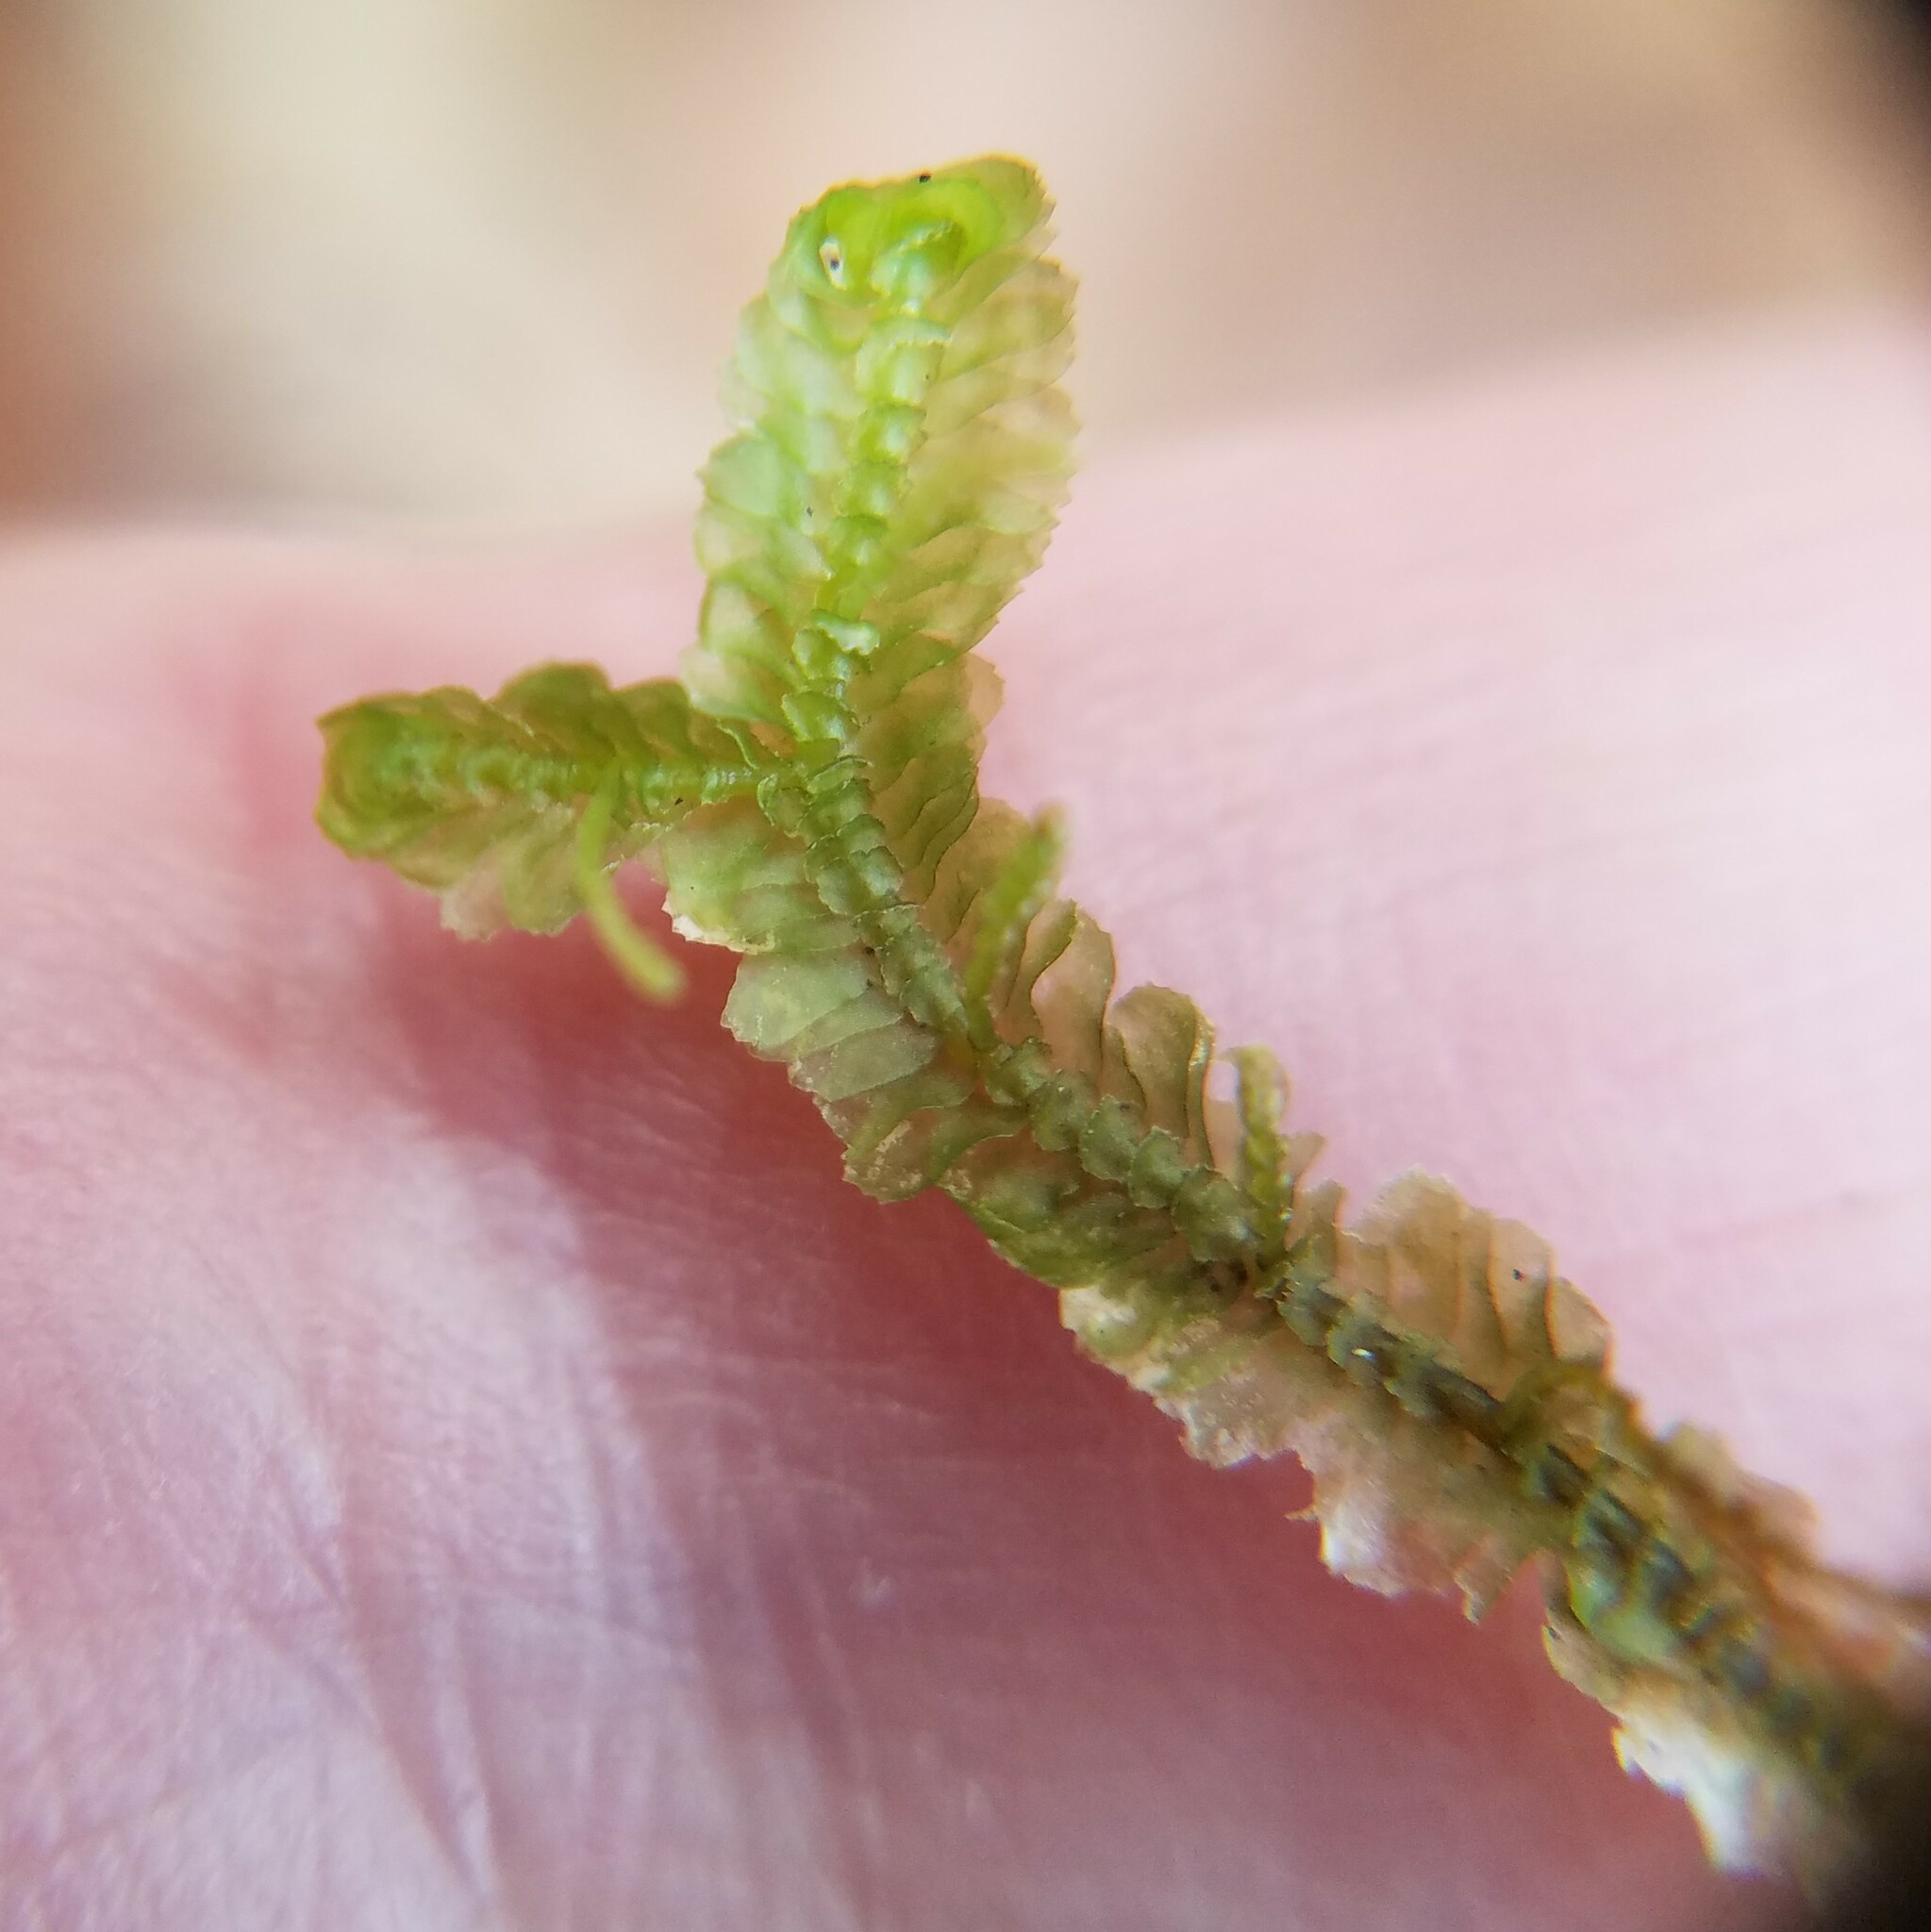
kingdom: Plantae
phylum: Marchantiophyta
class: Jungermanniopsida
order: Jungermanniales
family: Lepidoziaceae
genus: Bazzania
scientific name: Bazzania trilobata
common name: Three-lobed whipwort
